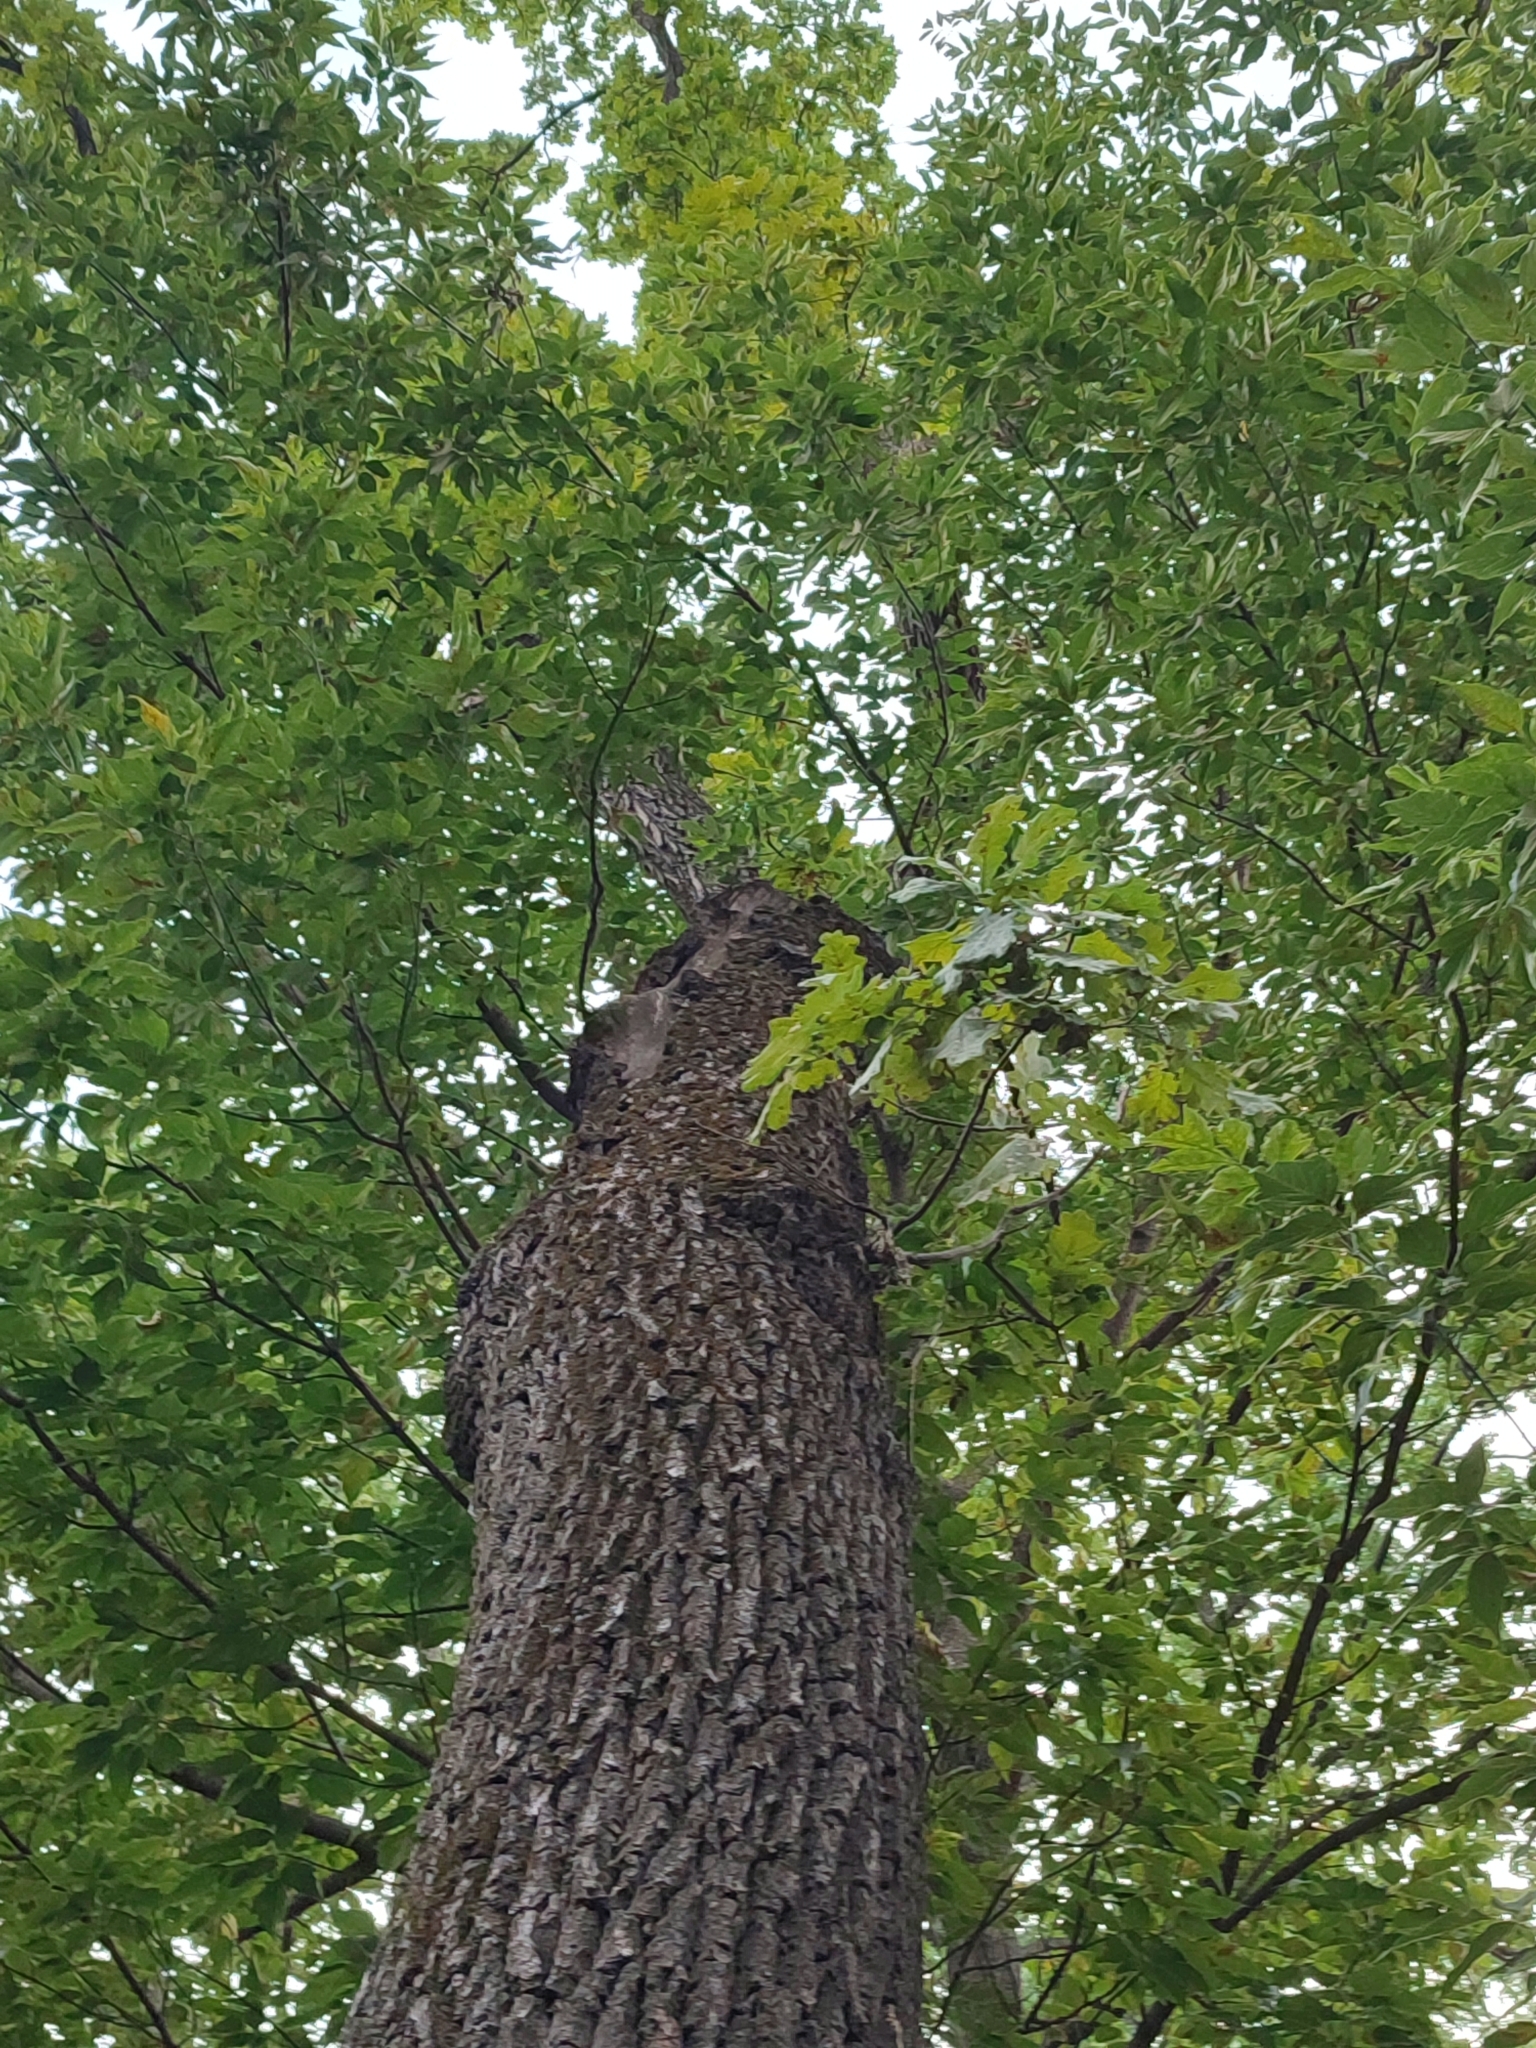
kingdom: Plantae
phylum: Tracheophyta
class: Magnoliopsida
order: Fagales
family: Fagaceae
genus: Quercus
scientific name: Quercus robur
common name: Pedunculate oak
